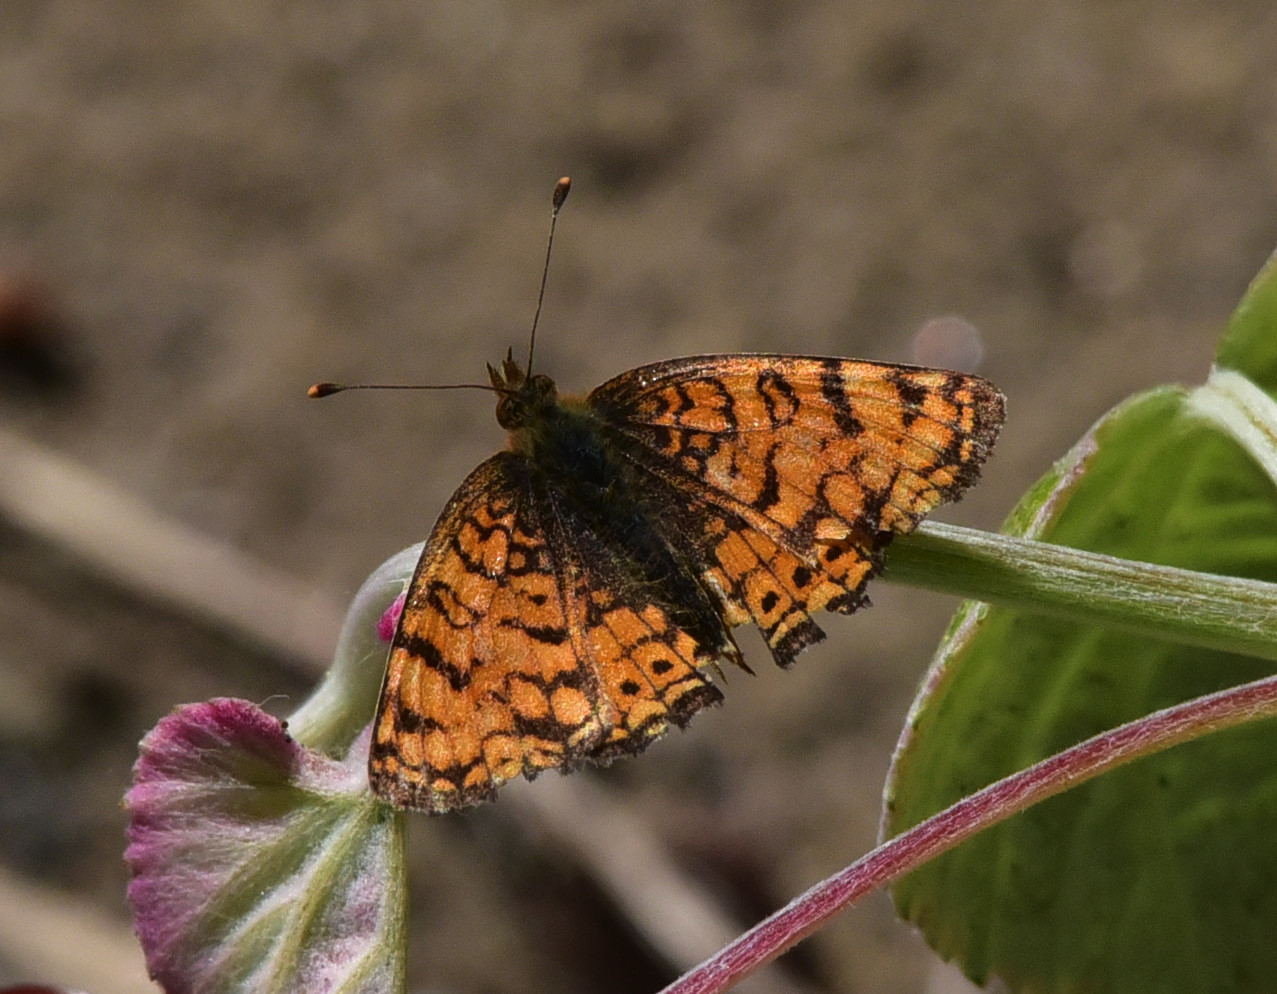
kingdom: Animalia
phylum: Arthropoda
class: Insecta
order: Lepidoptera
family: Nymphalidae
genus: Eresia
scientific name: Eresia aveyrona
